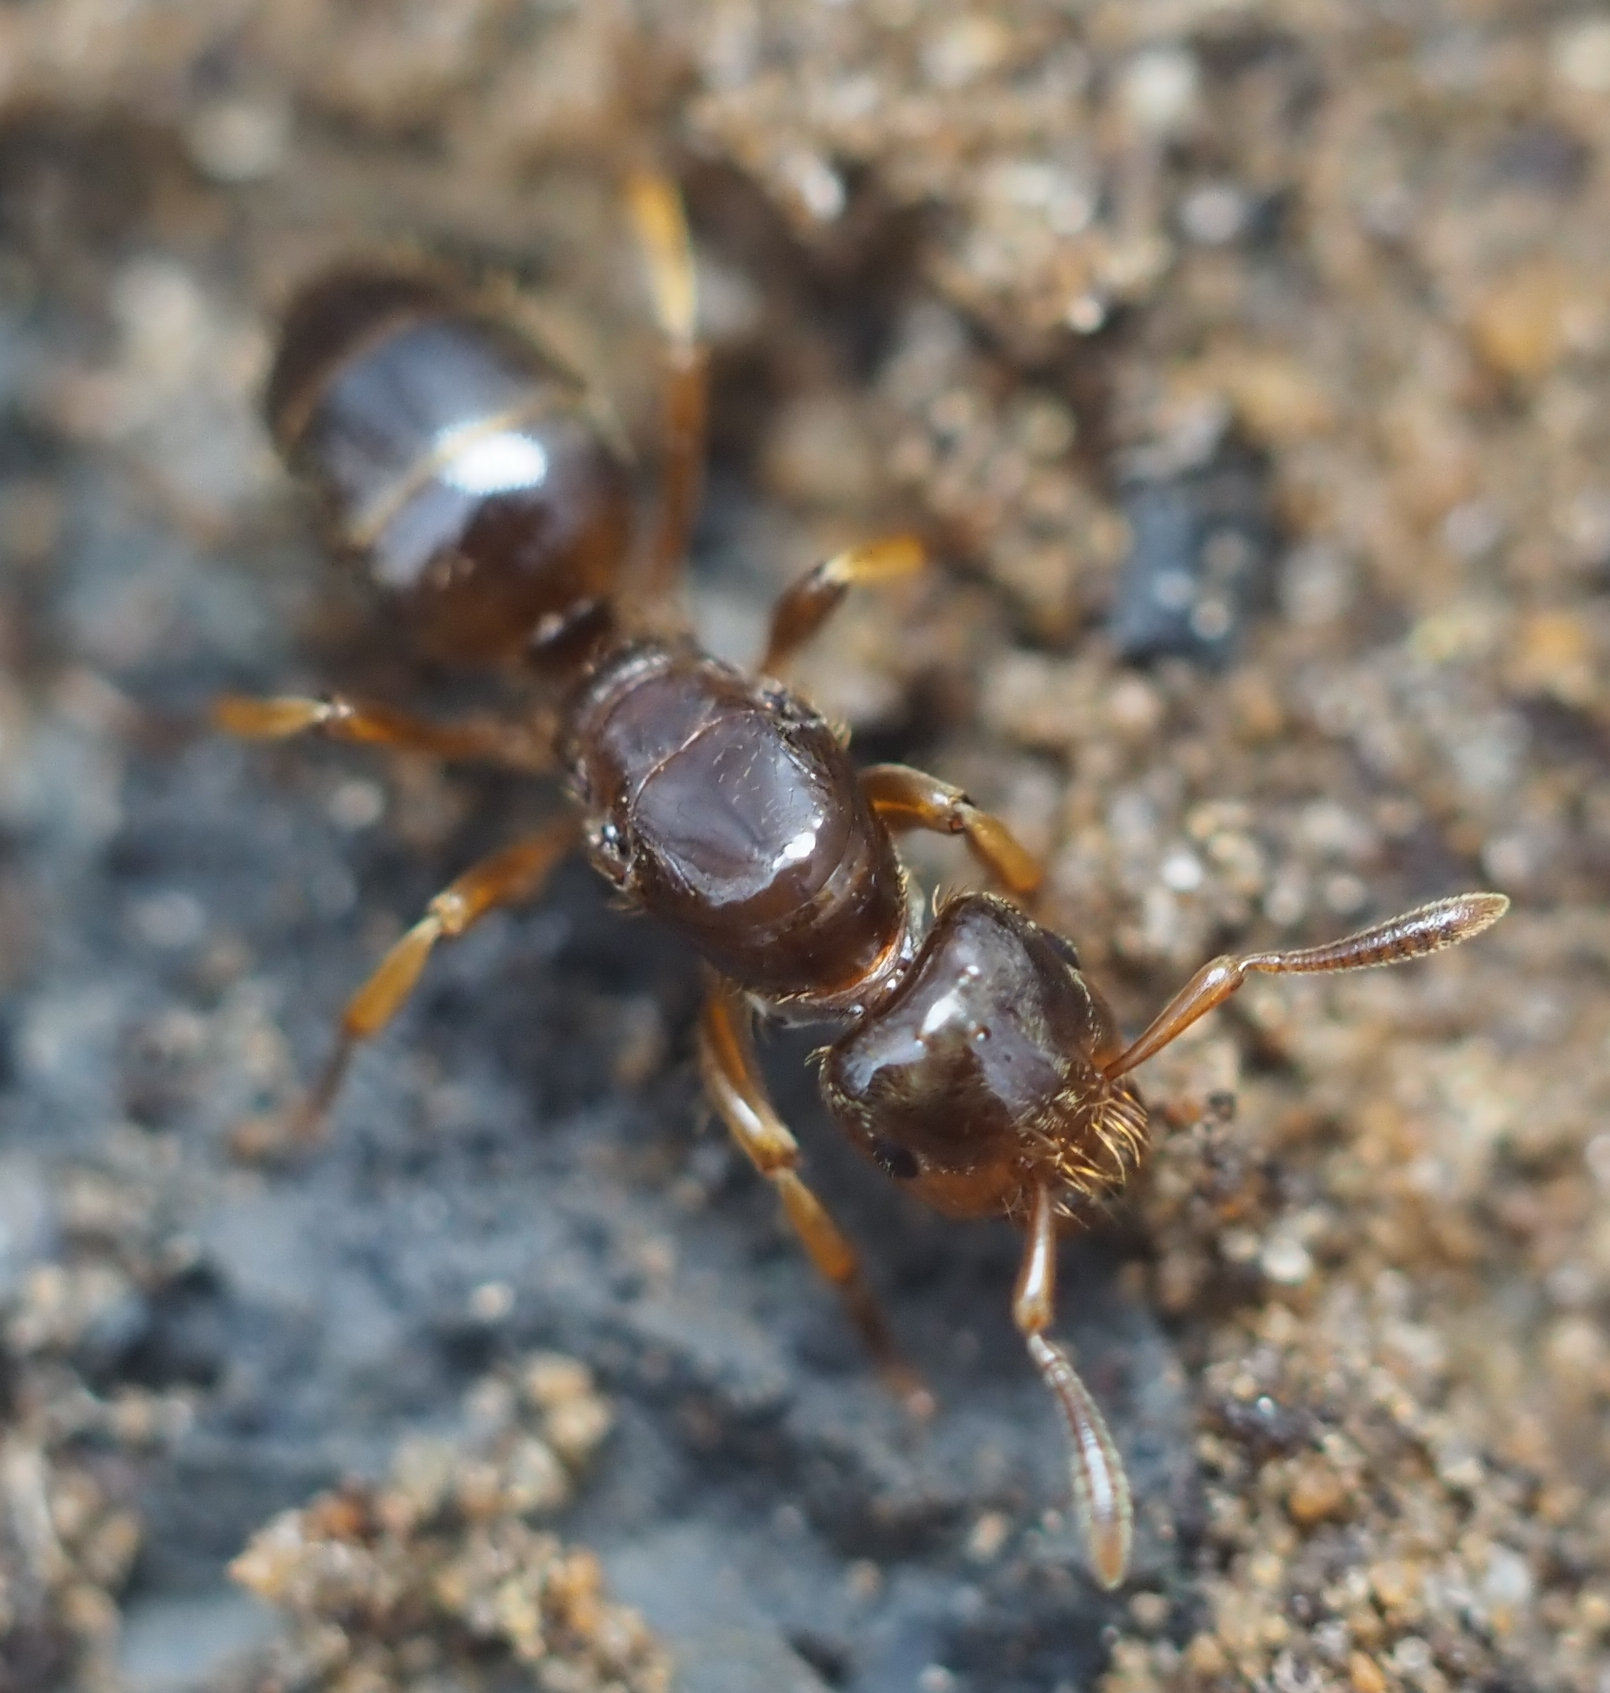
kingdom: Animalia
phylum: Arthropoda
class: Insecta
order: Hymenoptera
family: Formicidae
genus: Lasius
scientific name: Lasius claviger
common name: Common citronella ant
